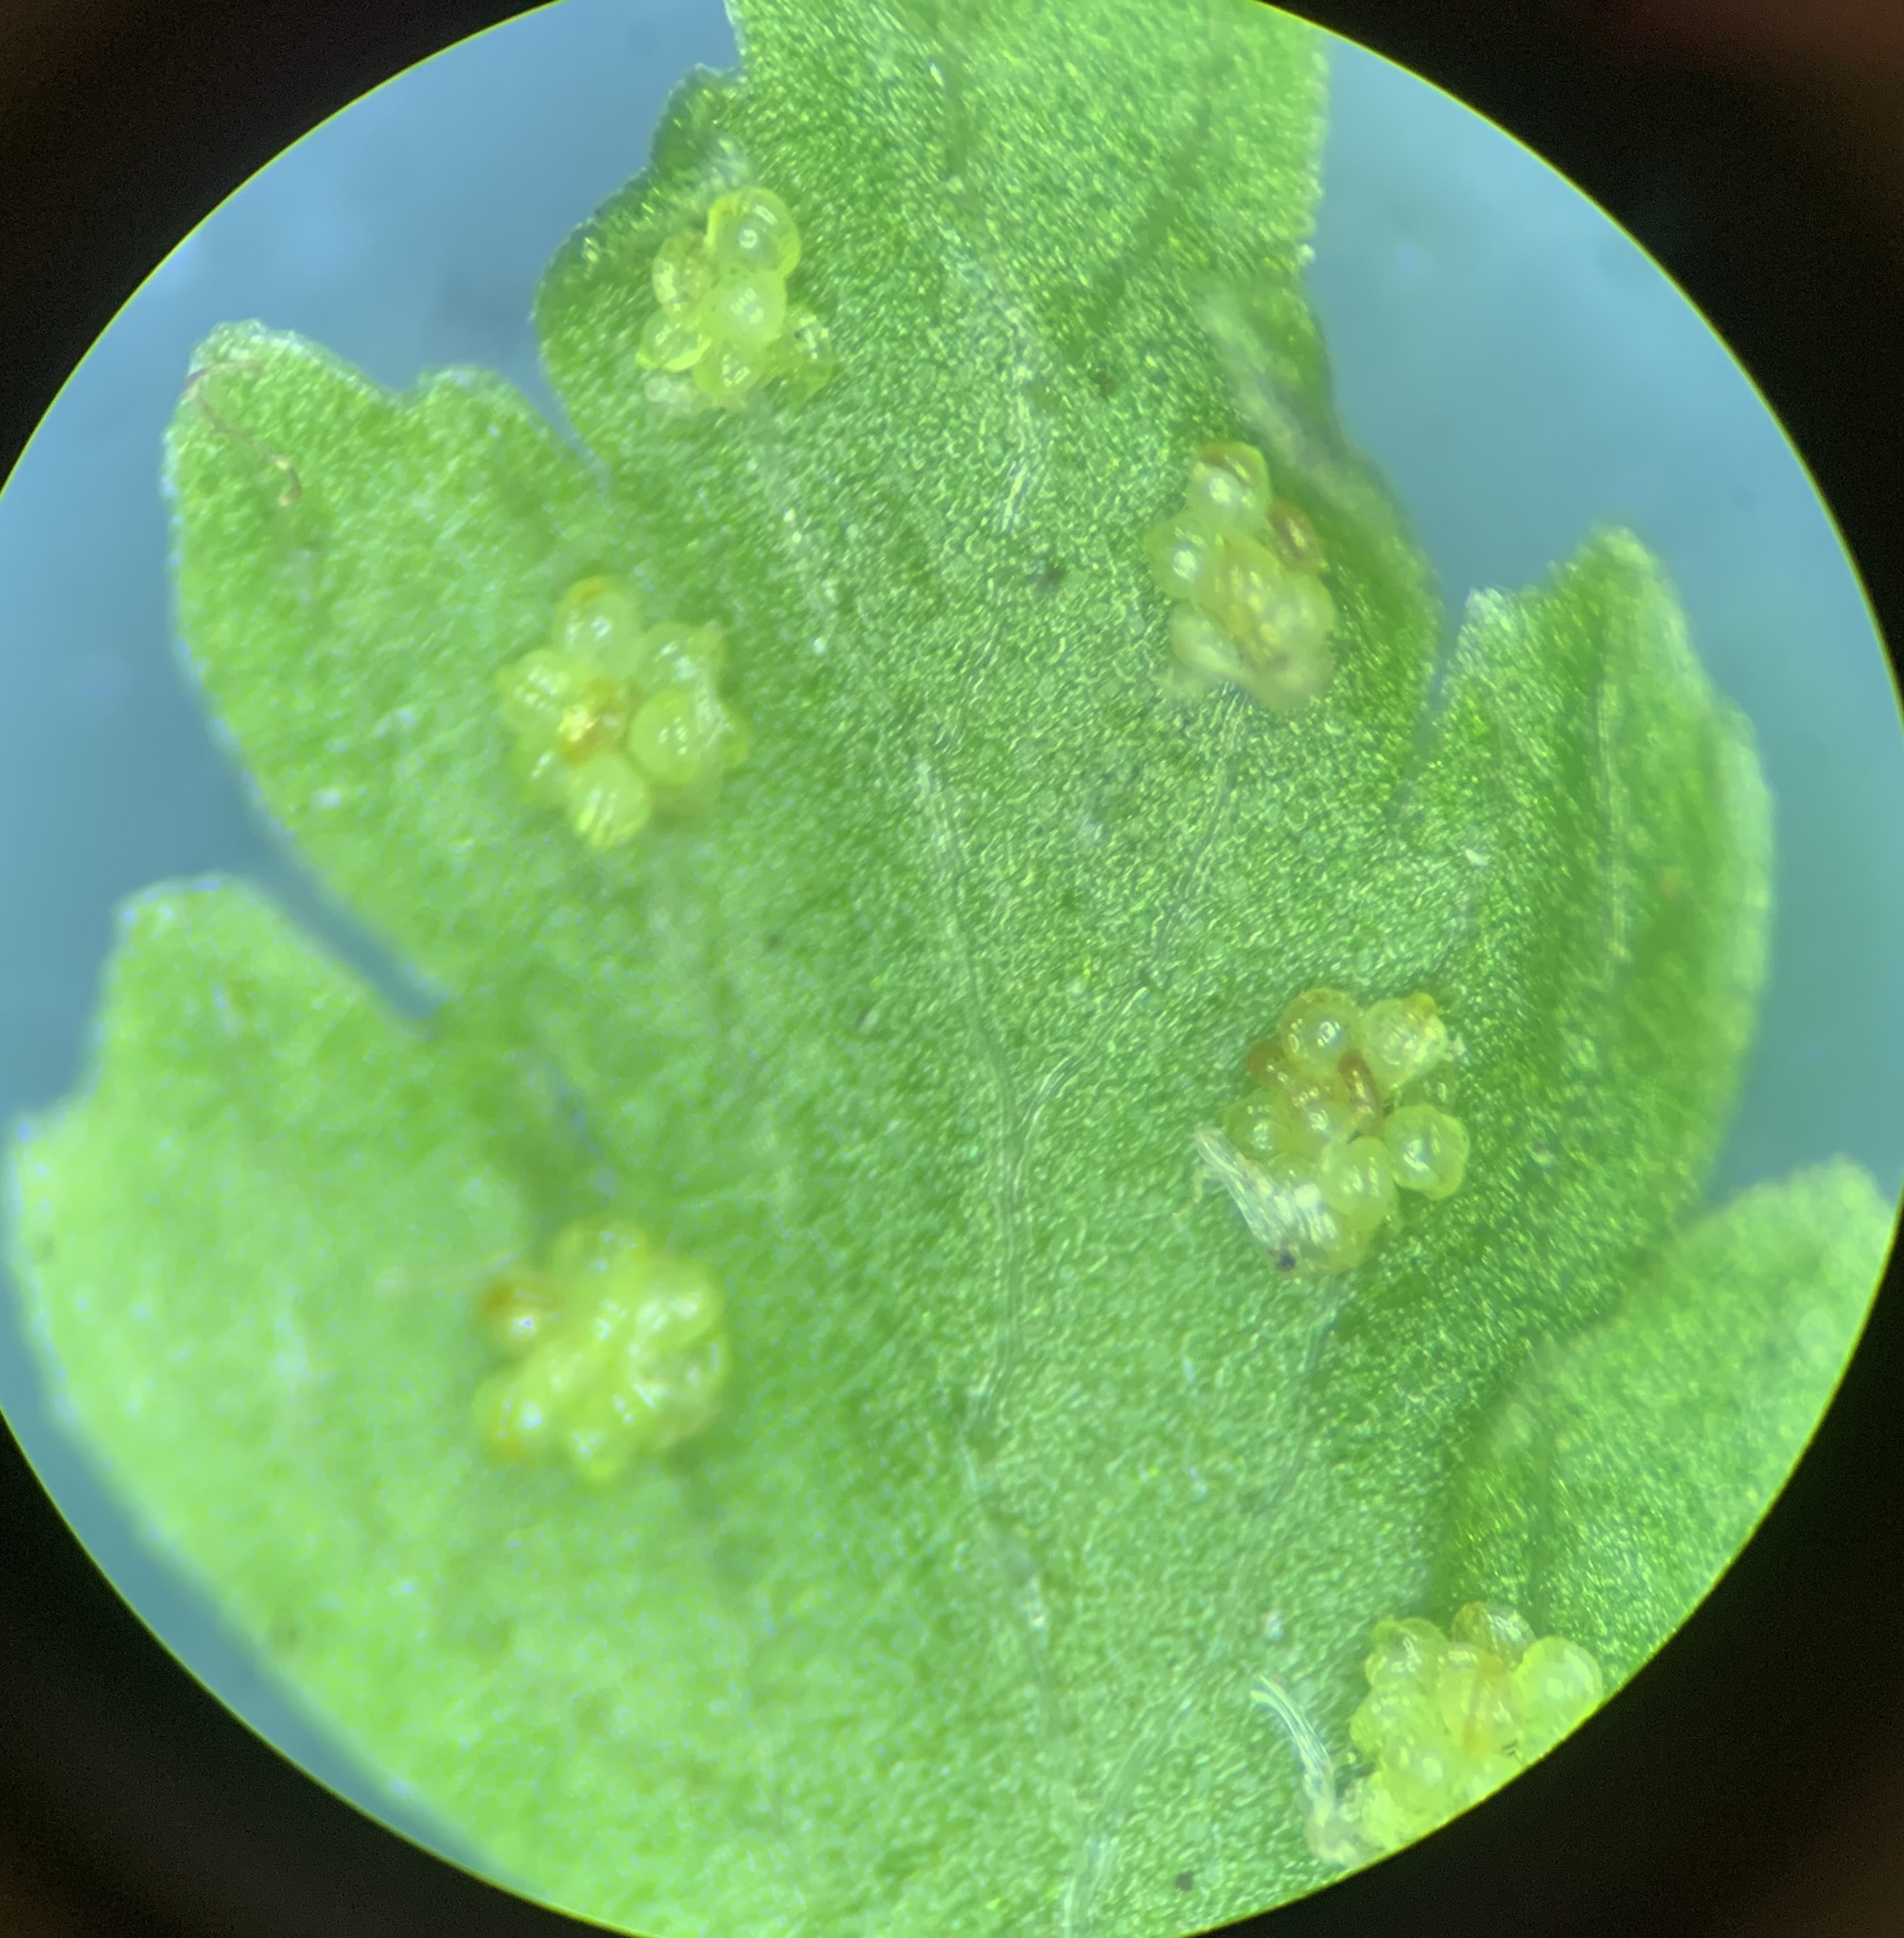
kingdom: Plantae
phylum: Tracheophyta
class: Polypodiopsida
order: Polypodiales
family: Cystopteridaceae
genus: Cystopteris
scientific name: Cystopteris fragilis
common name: Brittle bladder fern
